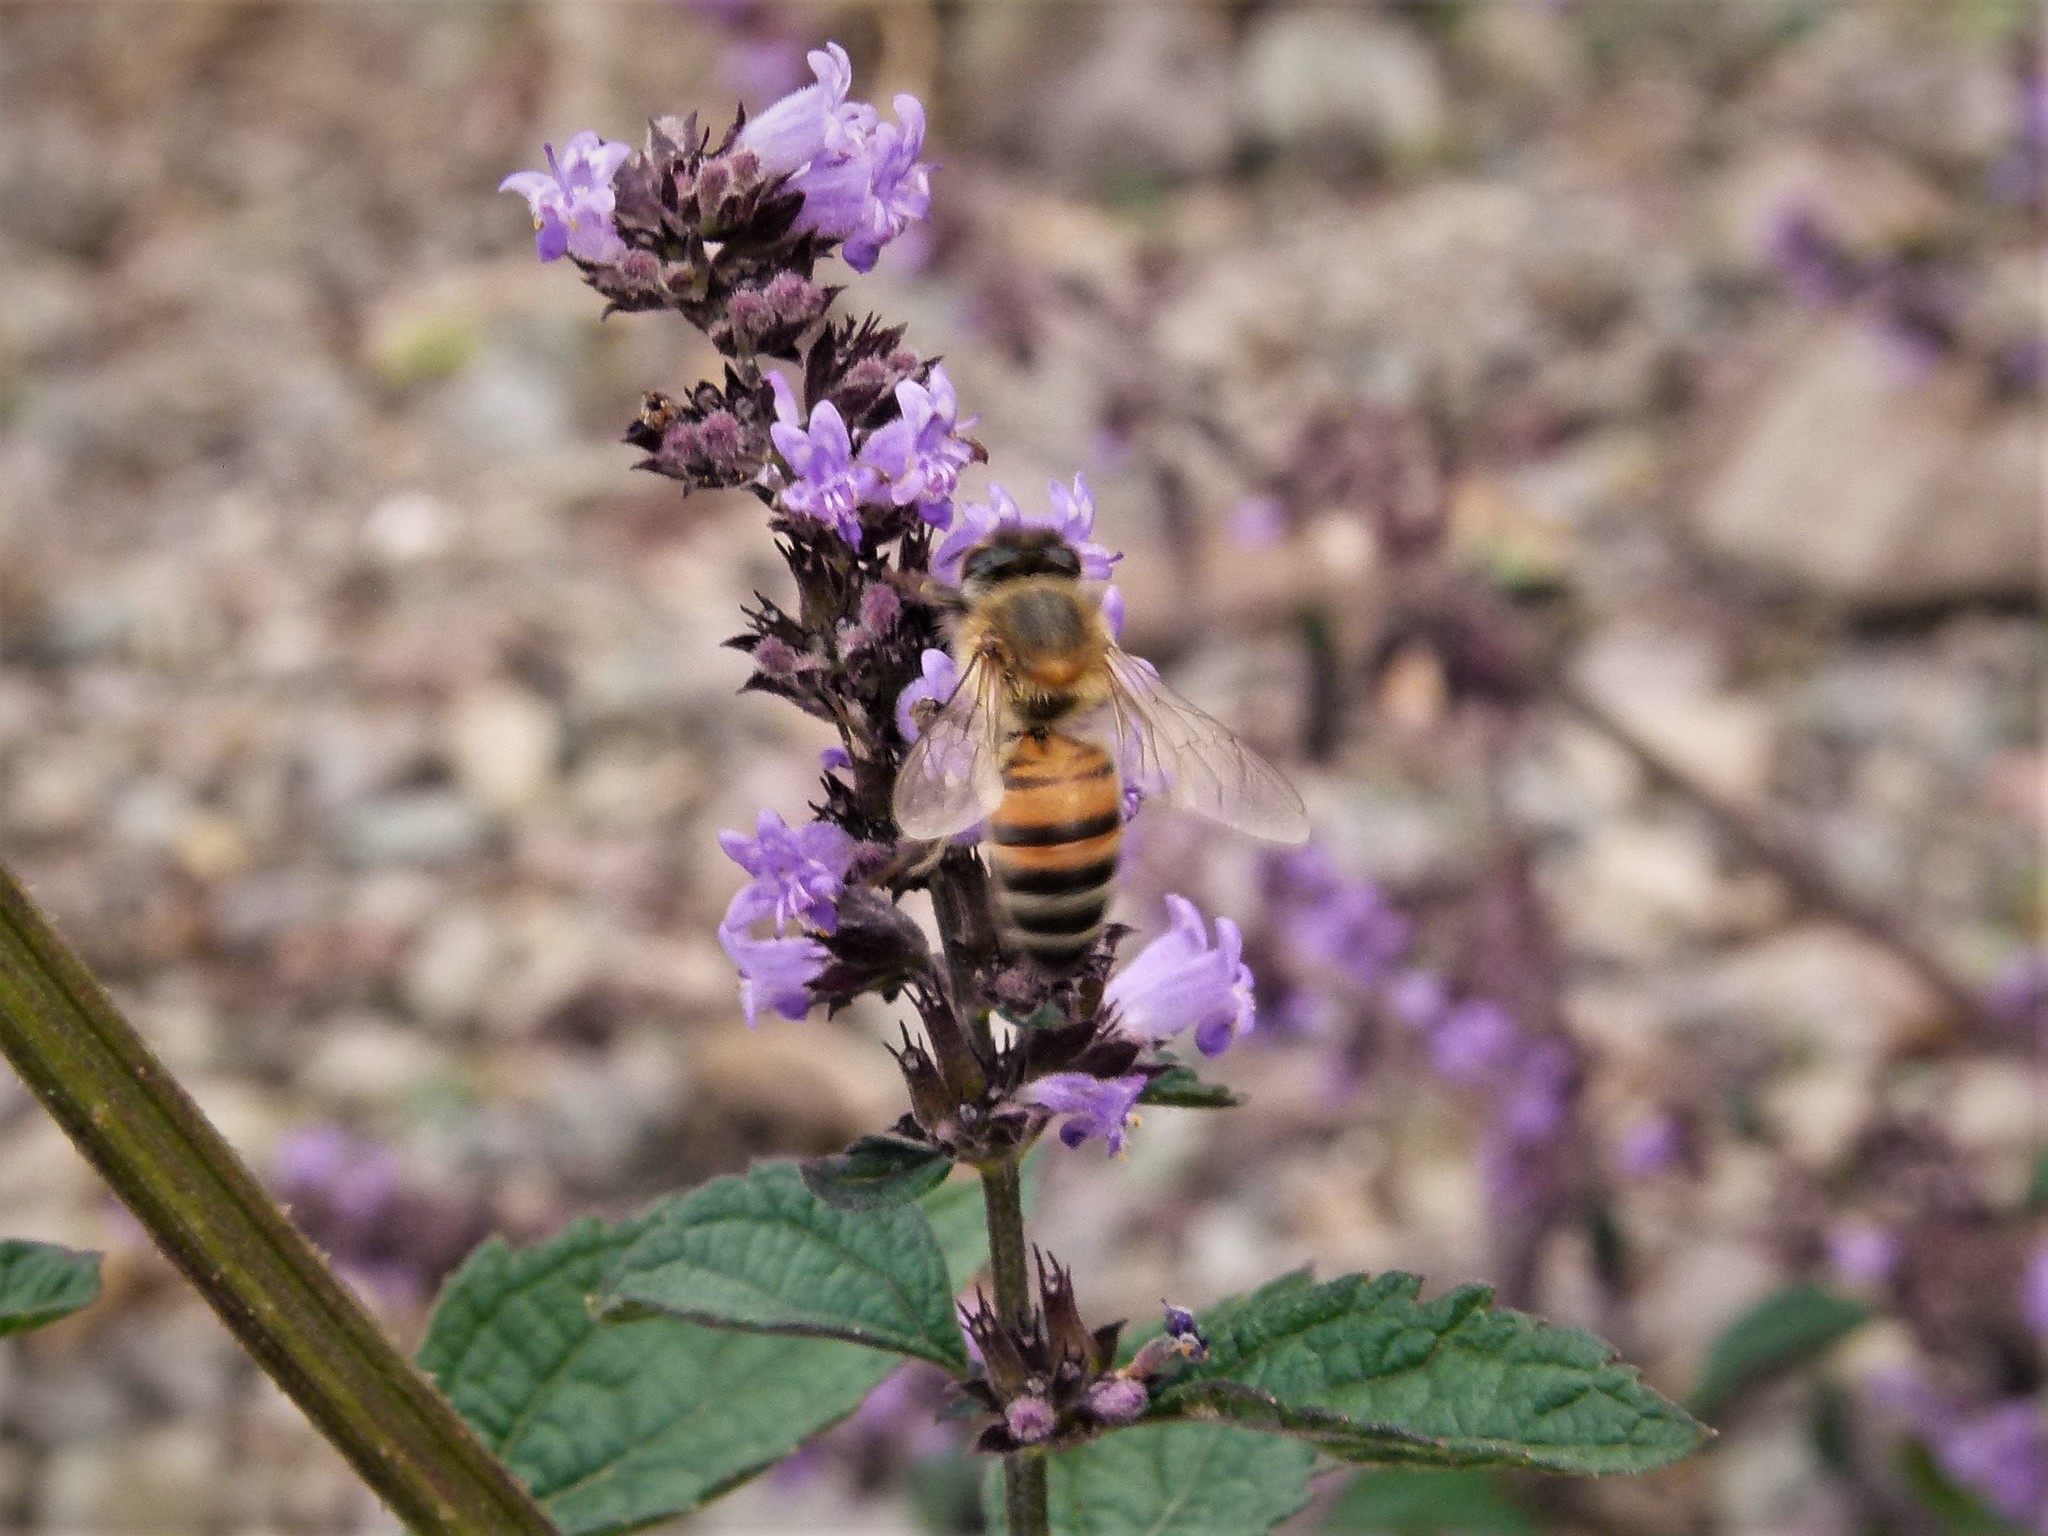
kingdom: Animalia
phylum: Arthropoda
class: Insecta
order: Hymenoptera
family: Apidae
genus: Apis
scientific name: Apis mellifera
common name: Honey bee
